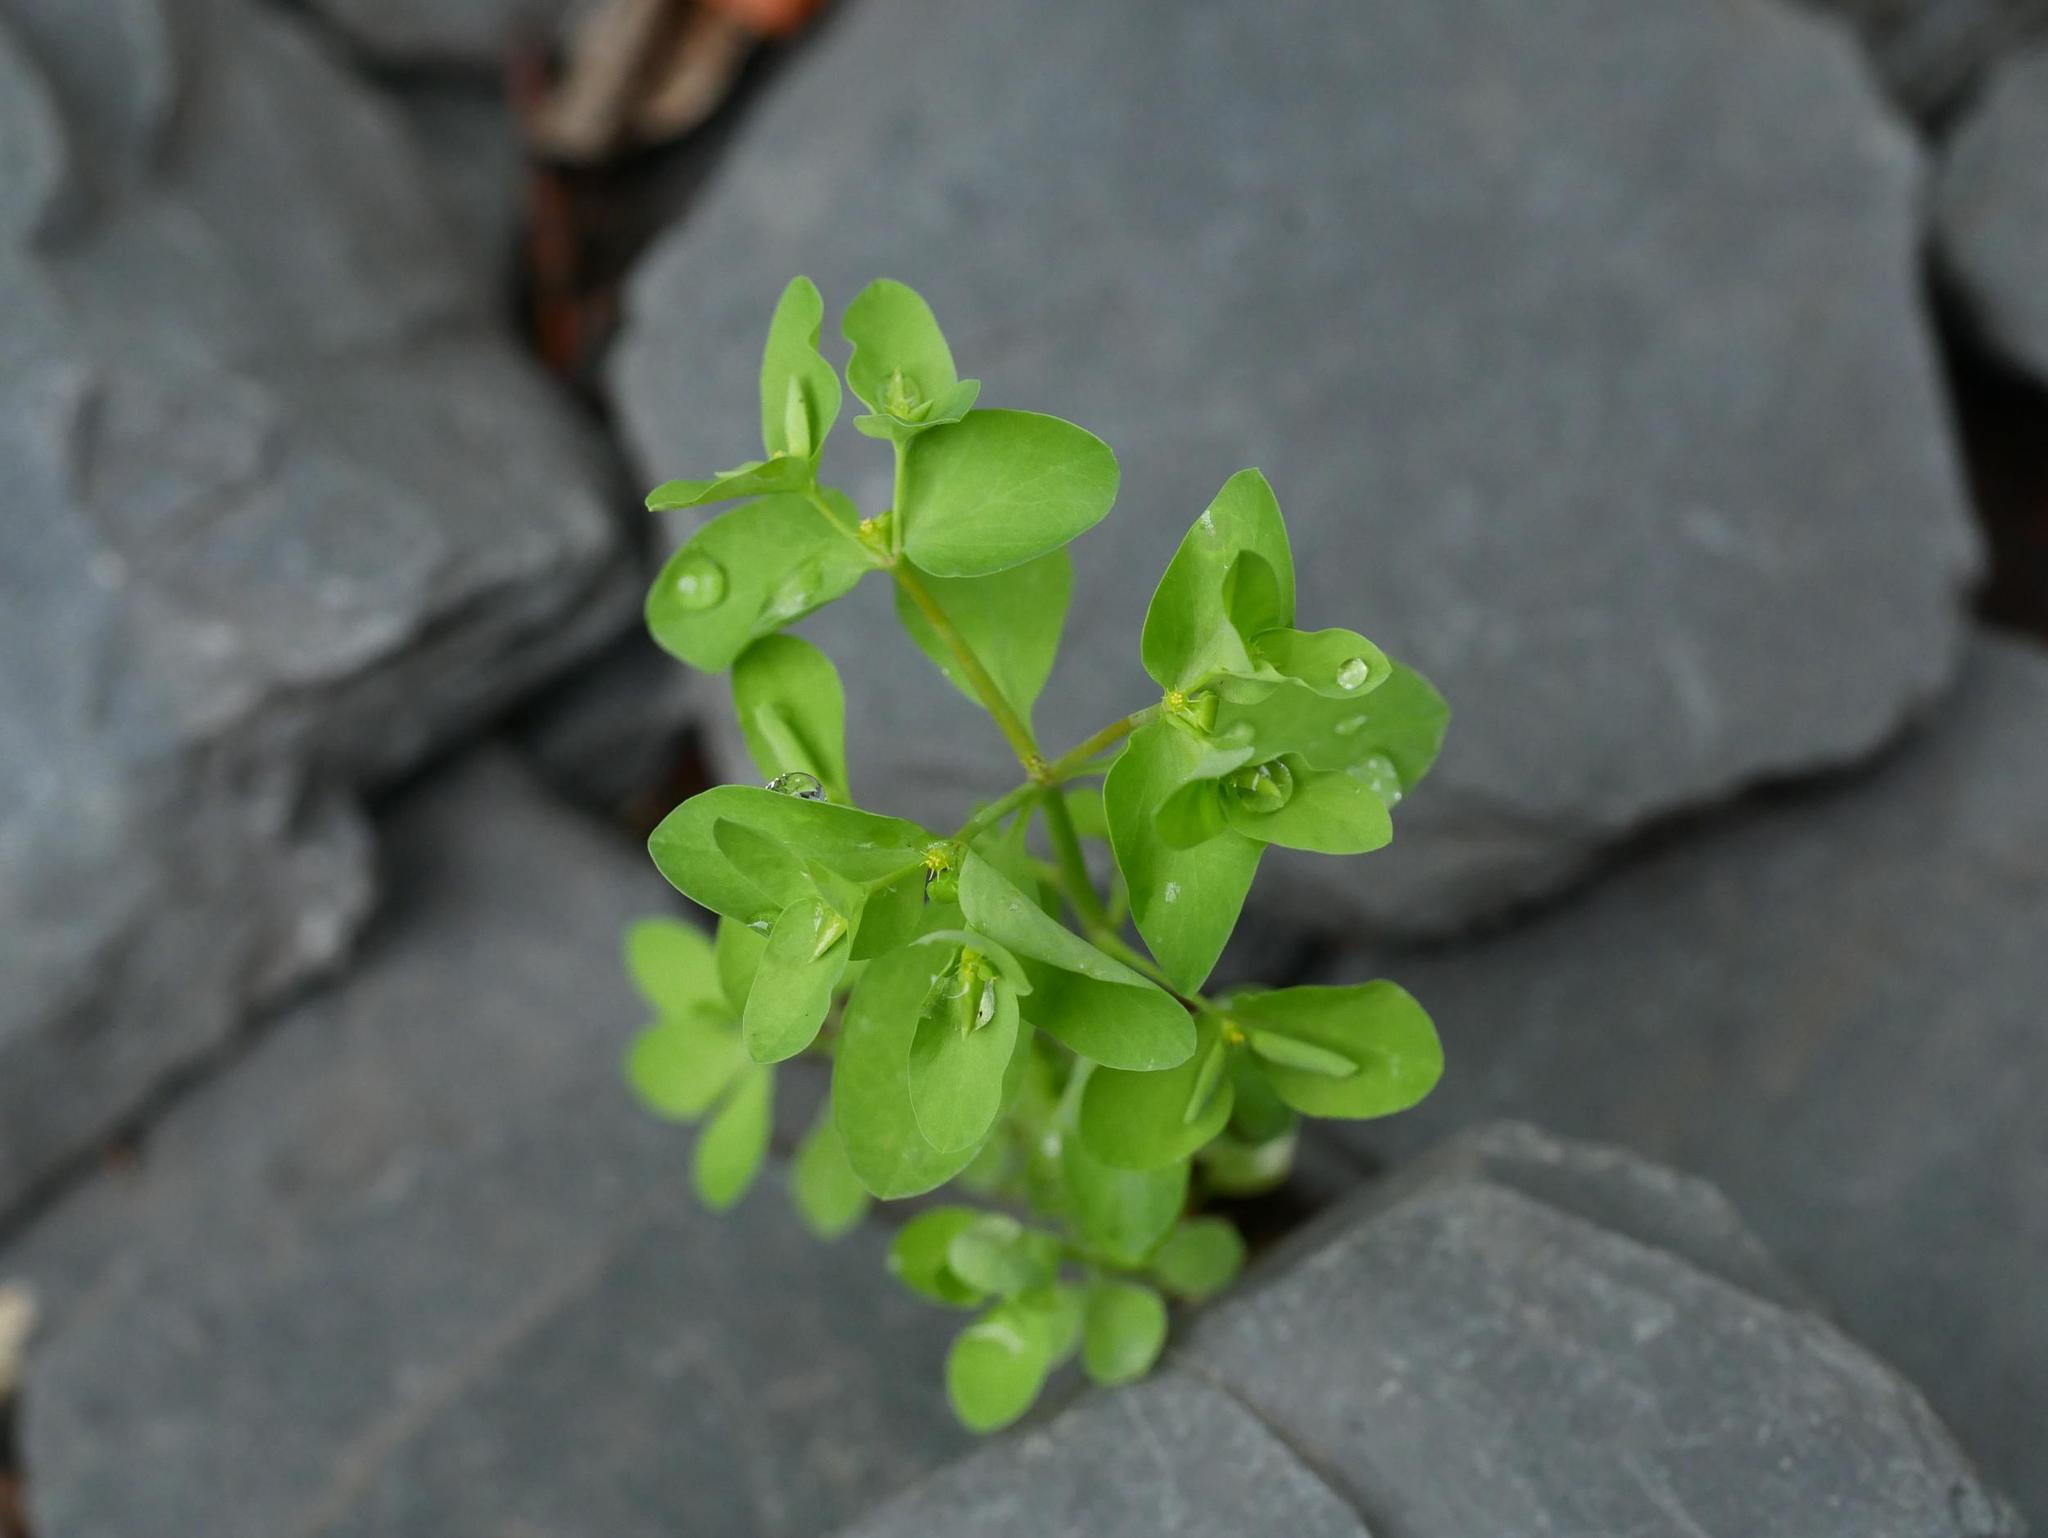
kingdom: Plantae
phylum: Tracheophyta
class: Magnoliopsida
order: Malpighiales
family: Euphorbiaceae
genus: Euphorbia
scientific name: Euphorbia peplus
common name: Petty spurge
